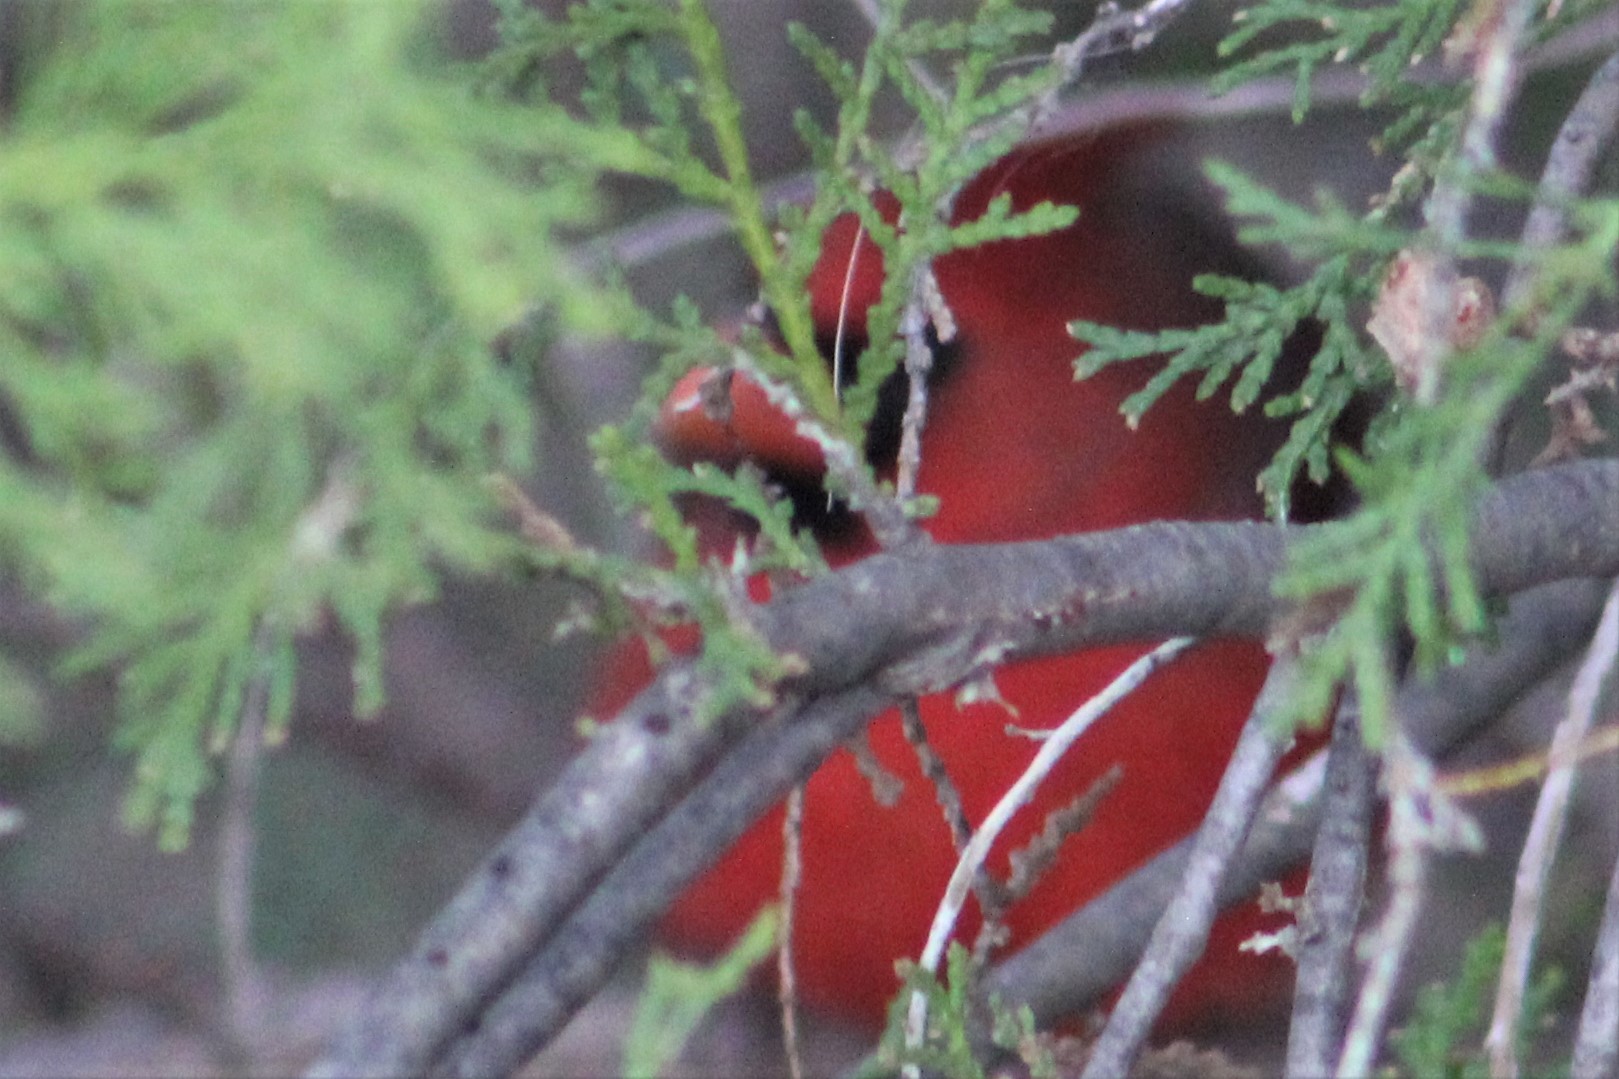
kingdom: Animalia
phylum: Chordata
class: Aves
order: Passeriformes
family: Cardinalidae
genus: Cardinalis
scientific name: Cardinalis cardinalis
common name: Northern cardinal
